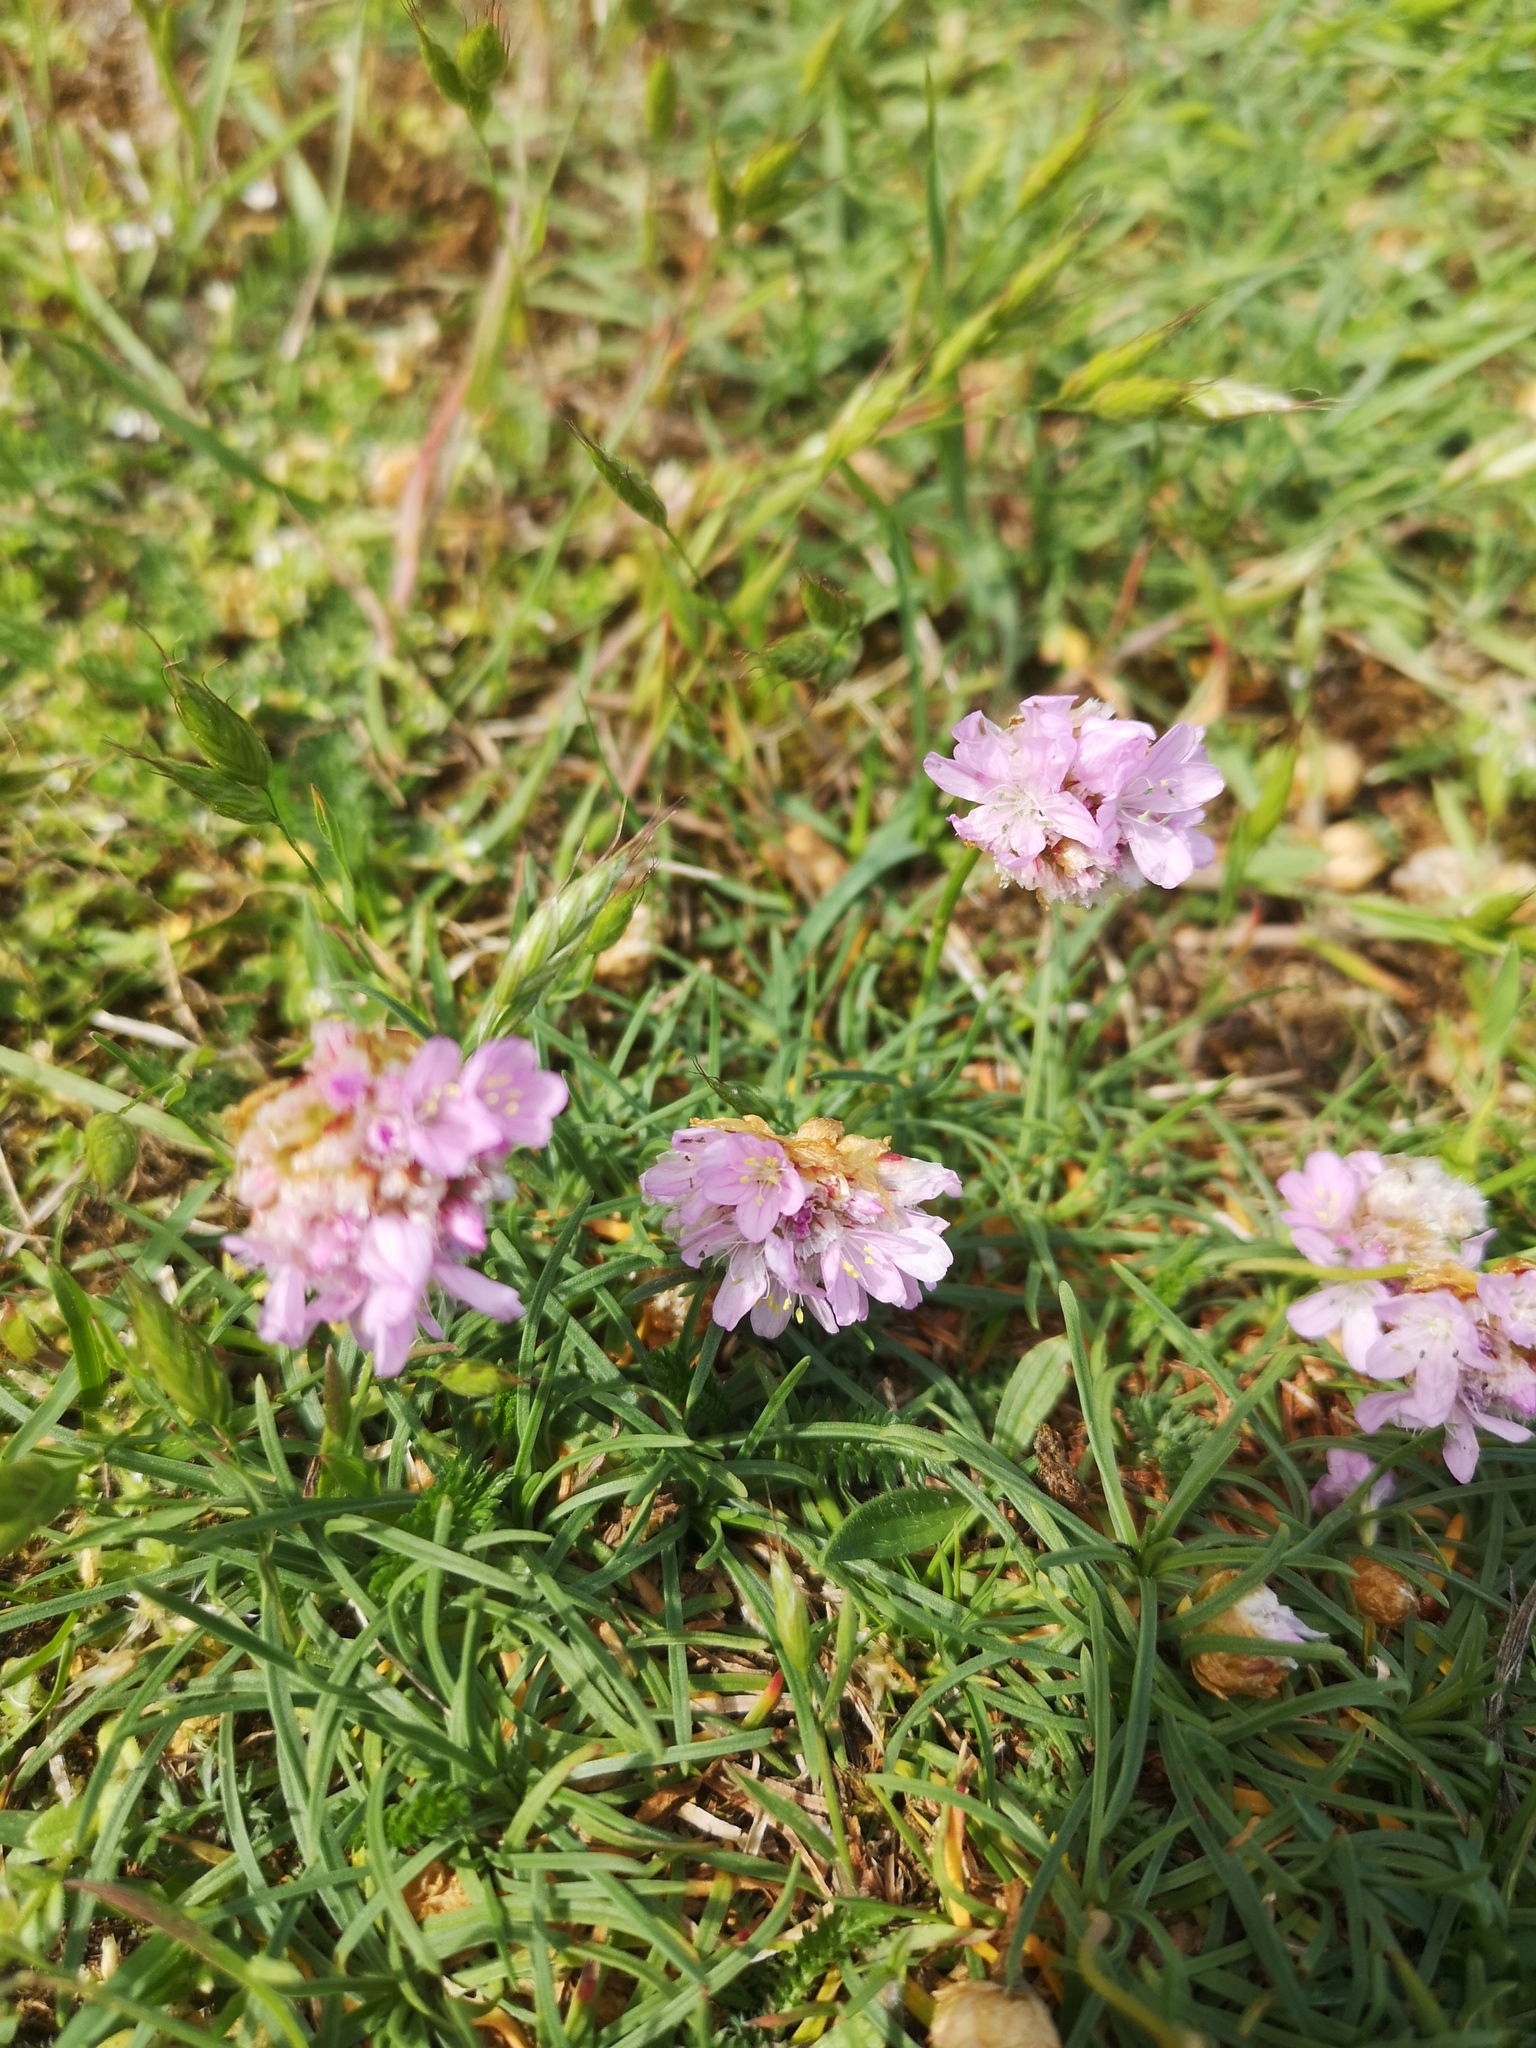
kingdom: Plantae
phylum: Tracheophyta
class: Magnoliopsida
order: Caryophyllales
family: Plumbaginaceae
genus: Armeria
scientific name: Armeria maritima
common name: Thrift
